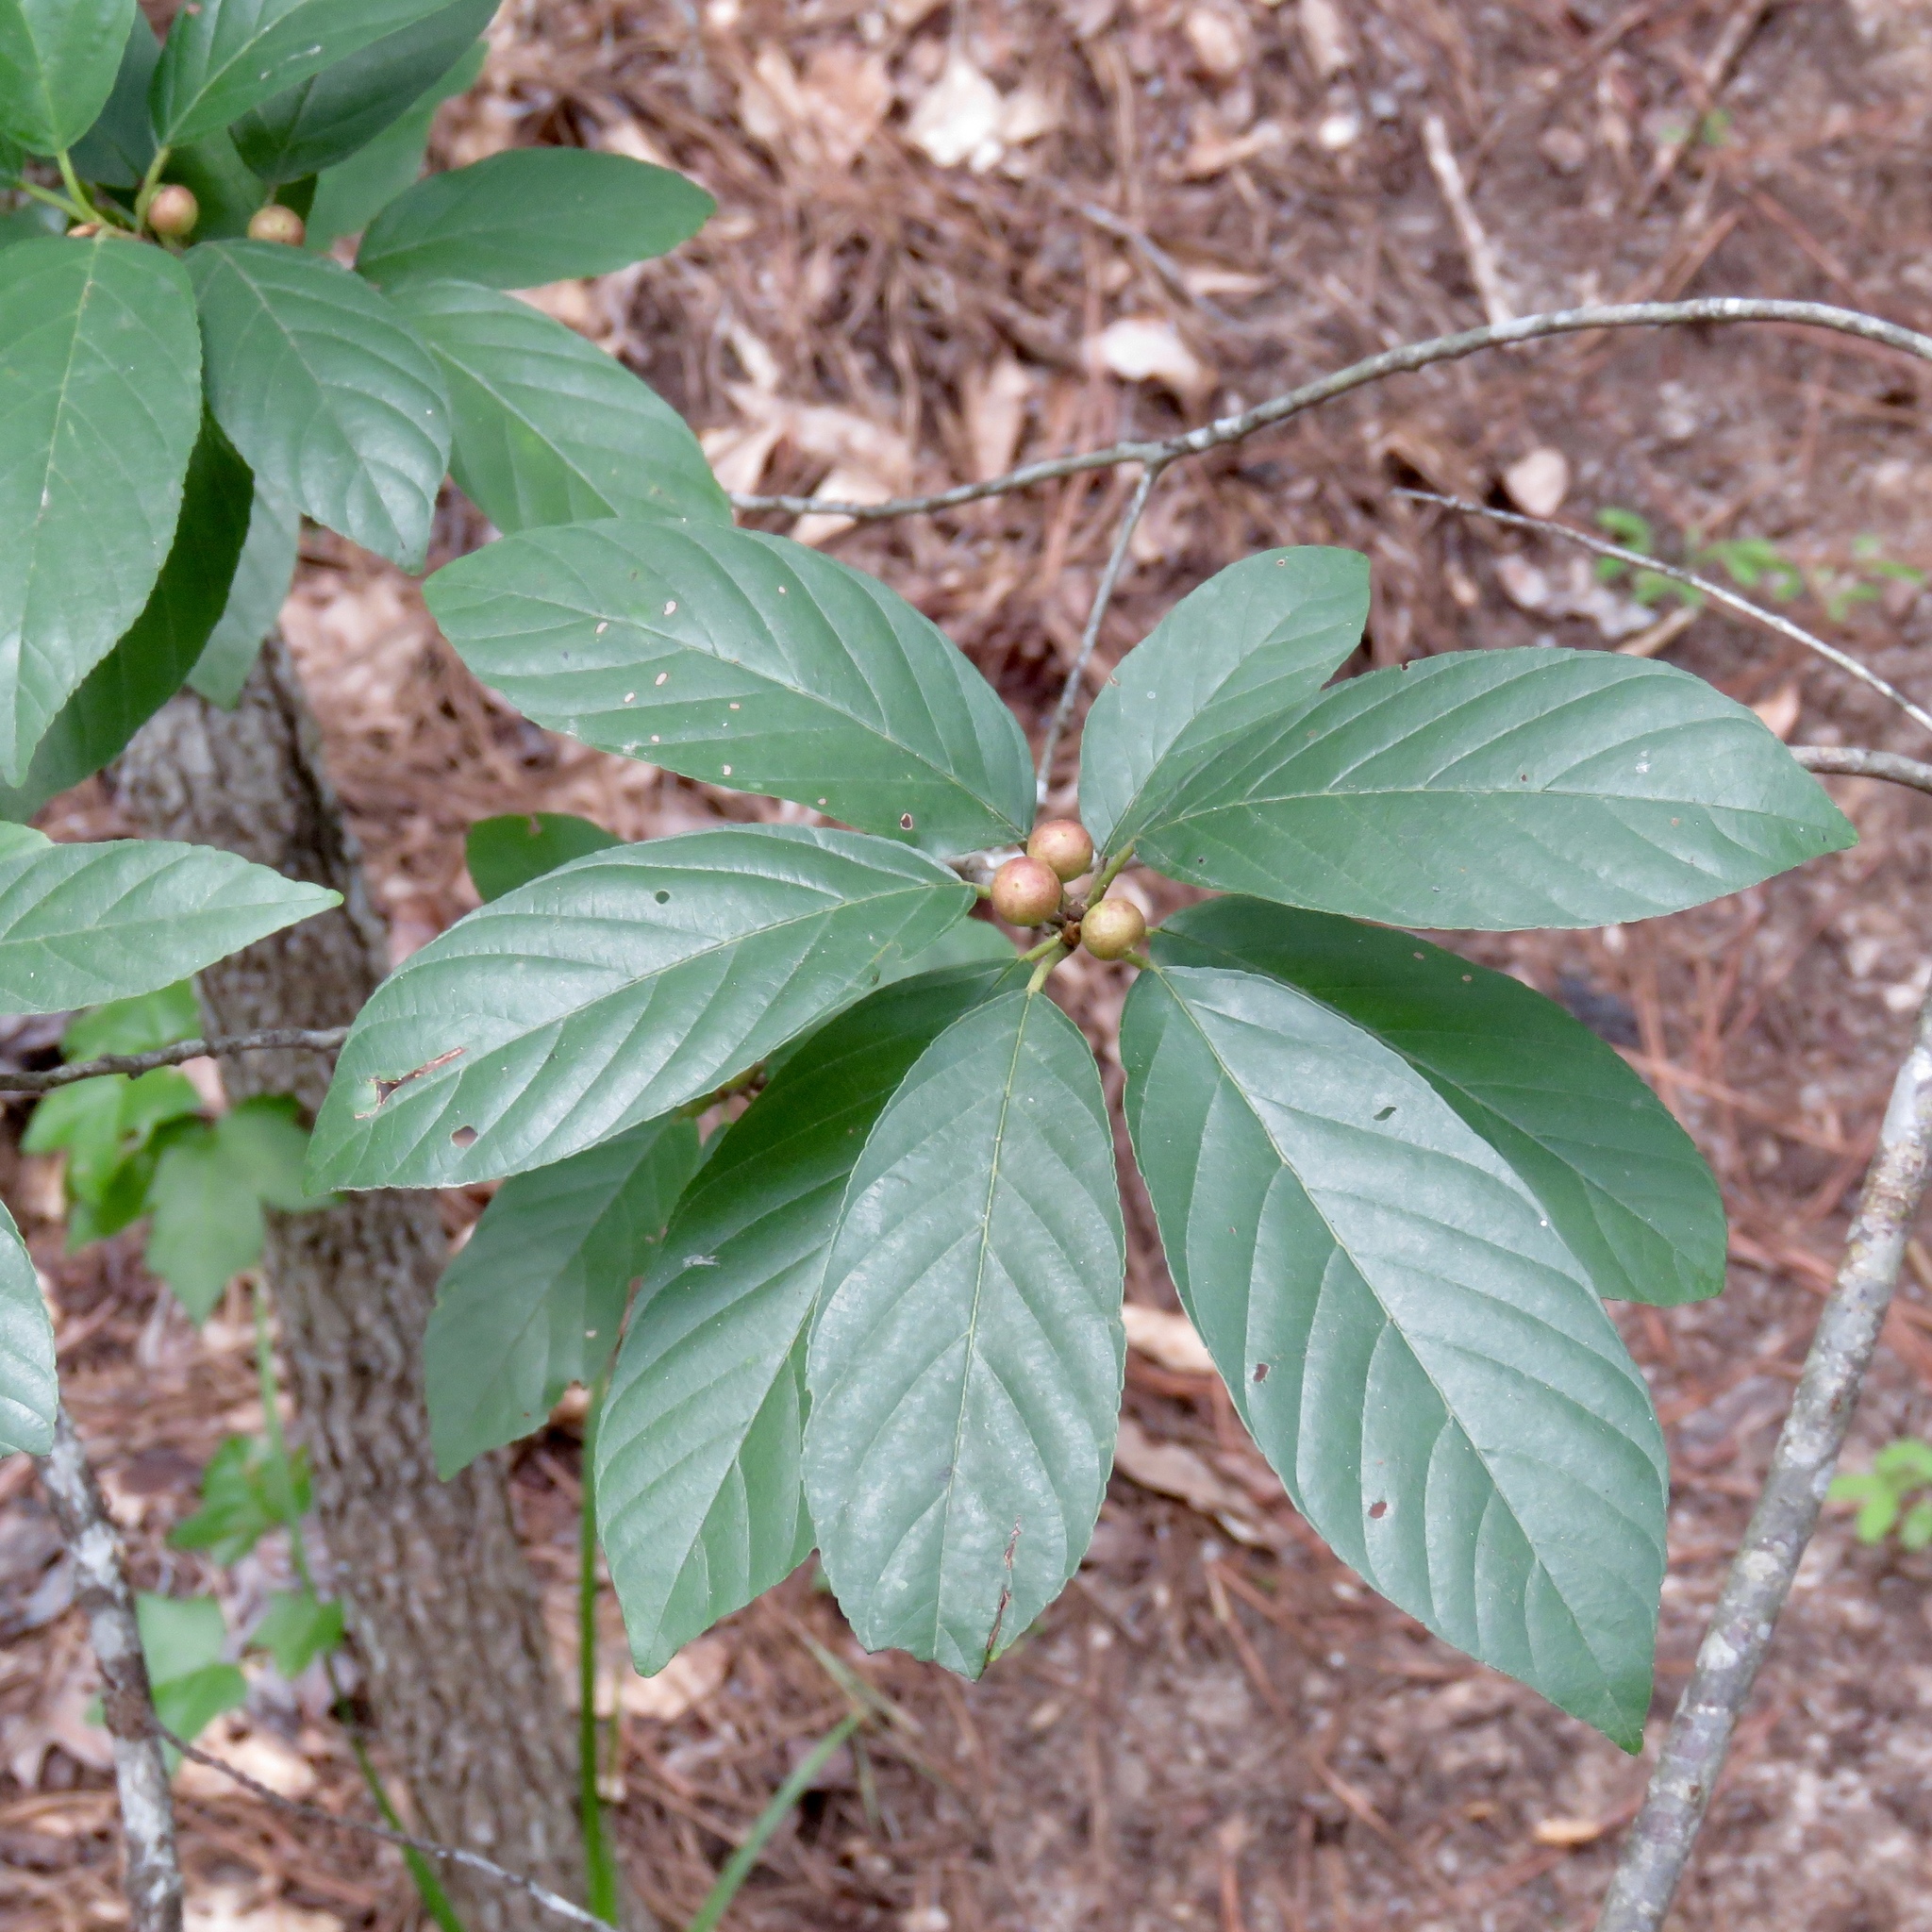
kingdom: Plantae
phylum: Tracheophyta
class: Magnoliopsida
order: Rosales
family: Rhamnaceae
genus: Frangula
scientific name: Frangula caroliniana
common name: Carolina buckthorn
